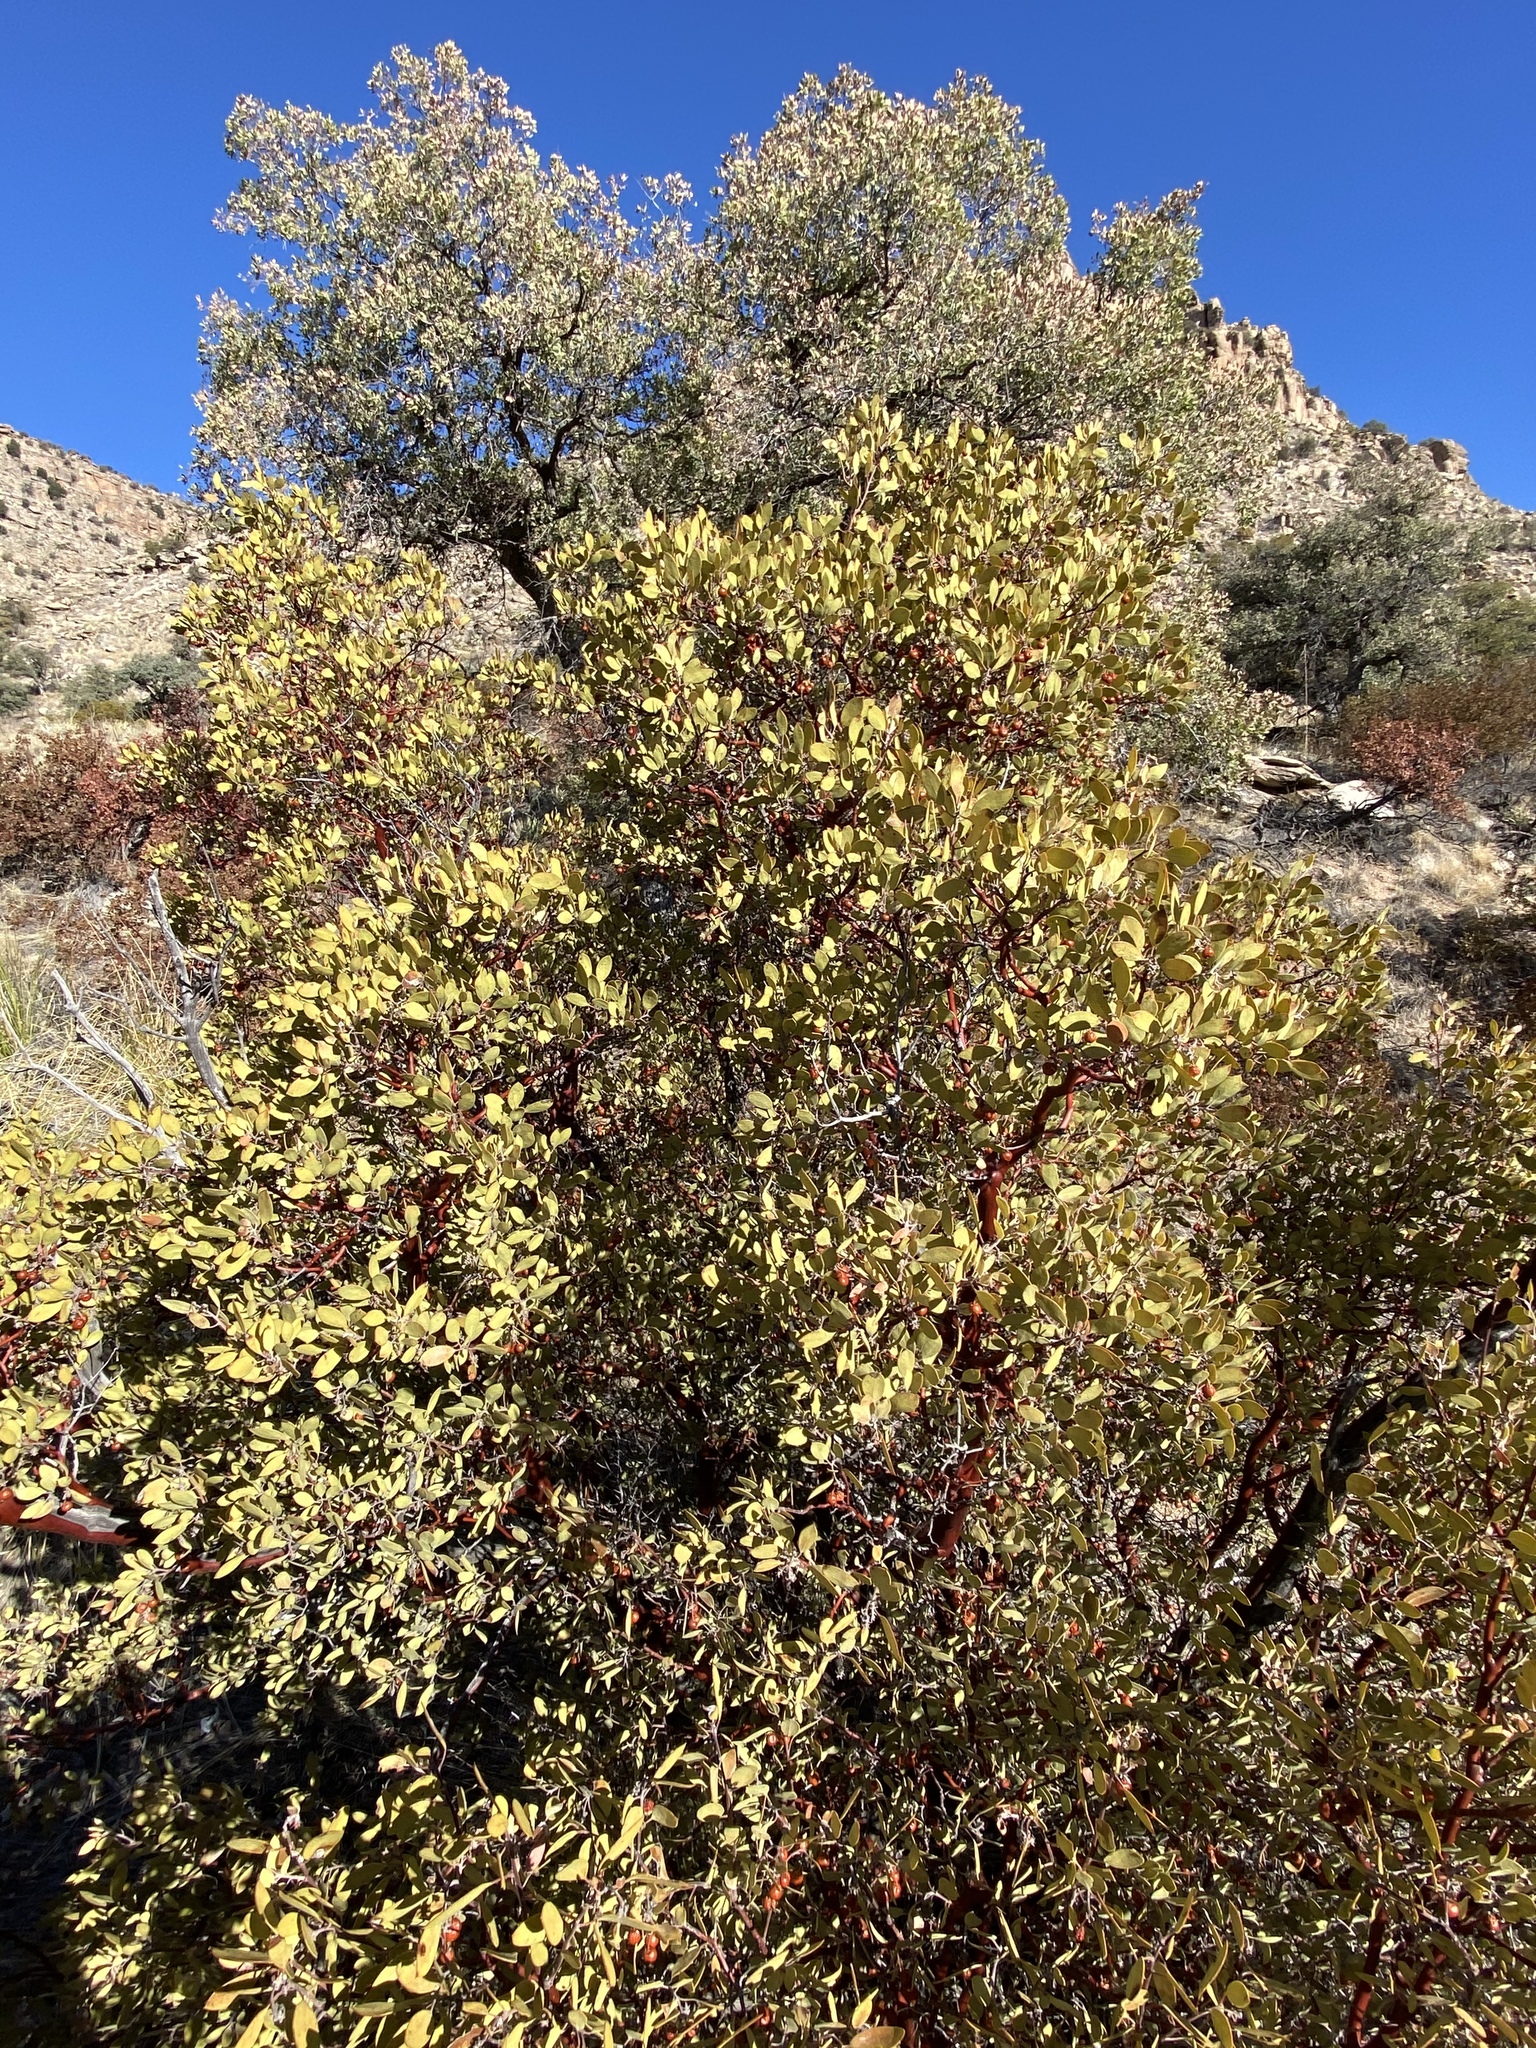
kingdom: Plantae
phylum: Tracheophyta
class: Magnoliopsida
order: Ericales
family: Ericaceae
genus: Arctostaphylos
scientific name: Arctostaphylos pungens
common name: Mexican manzanita
